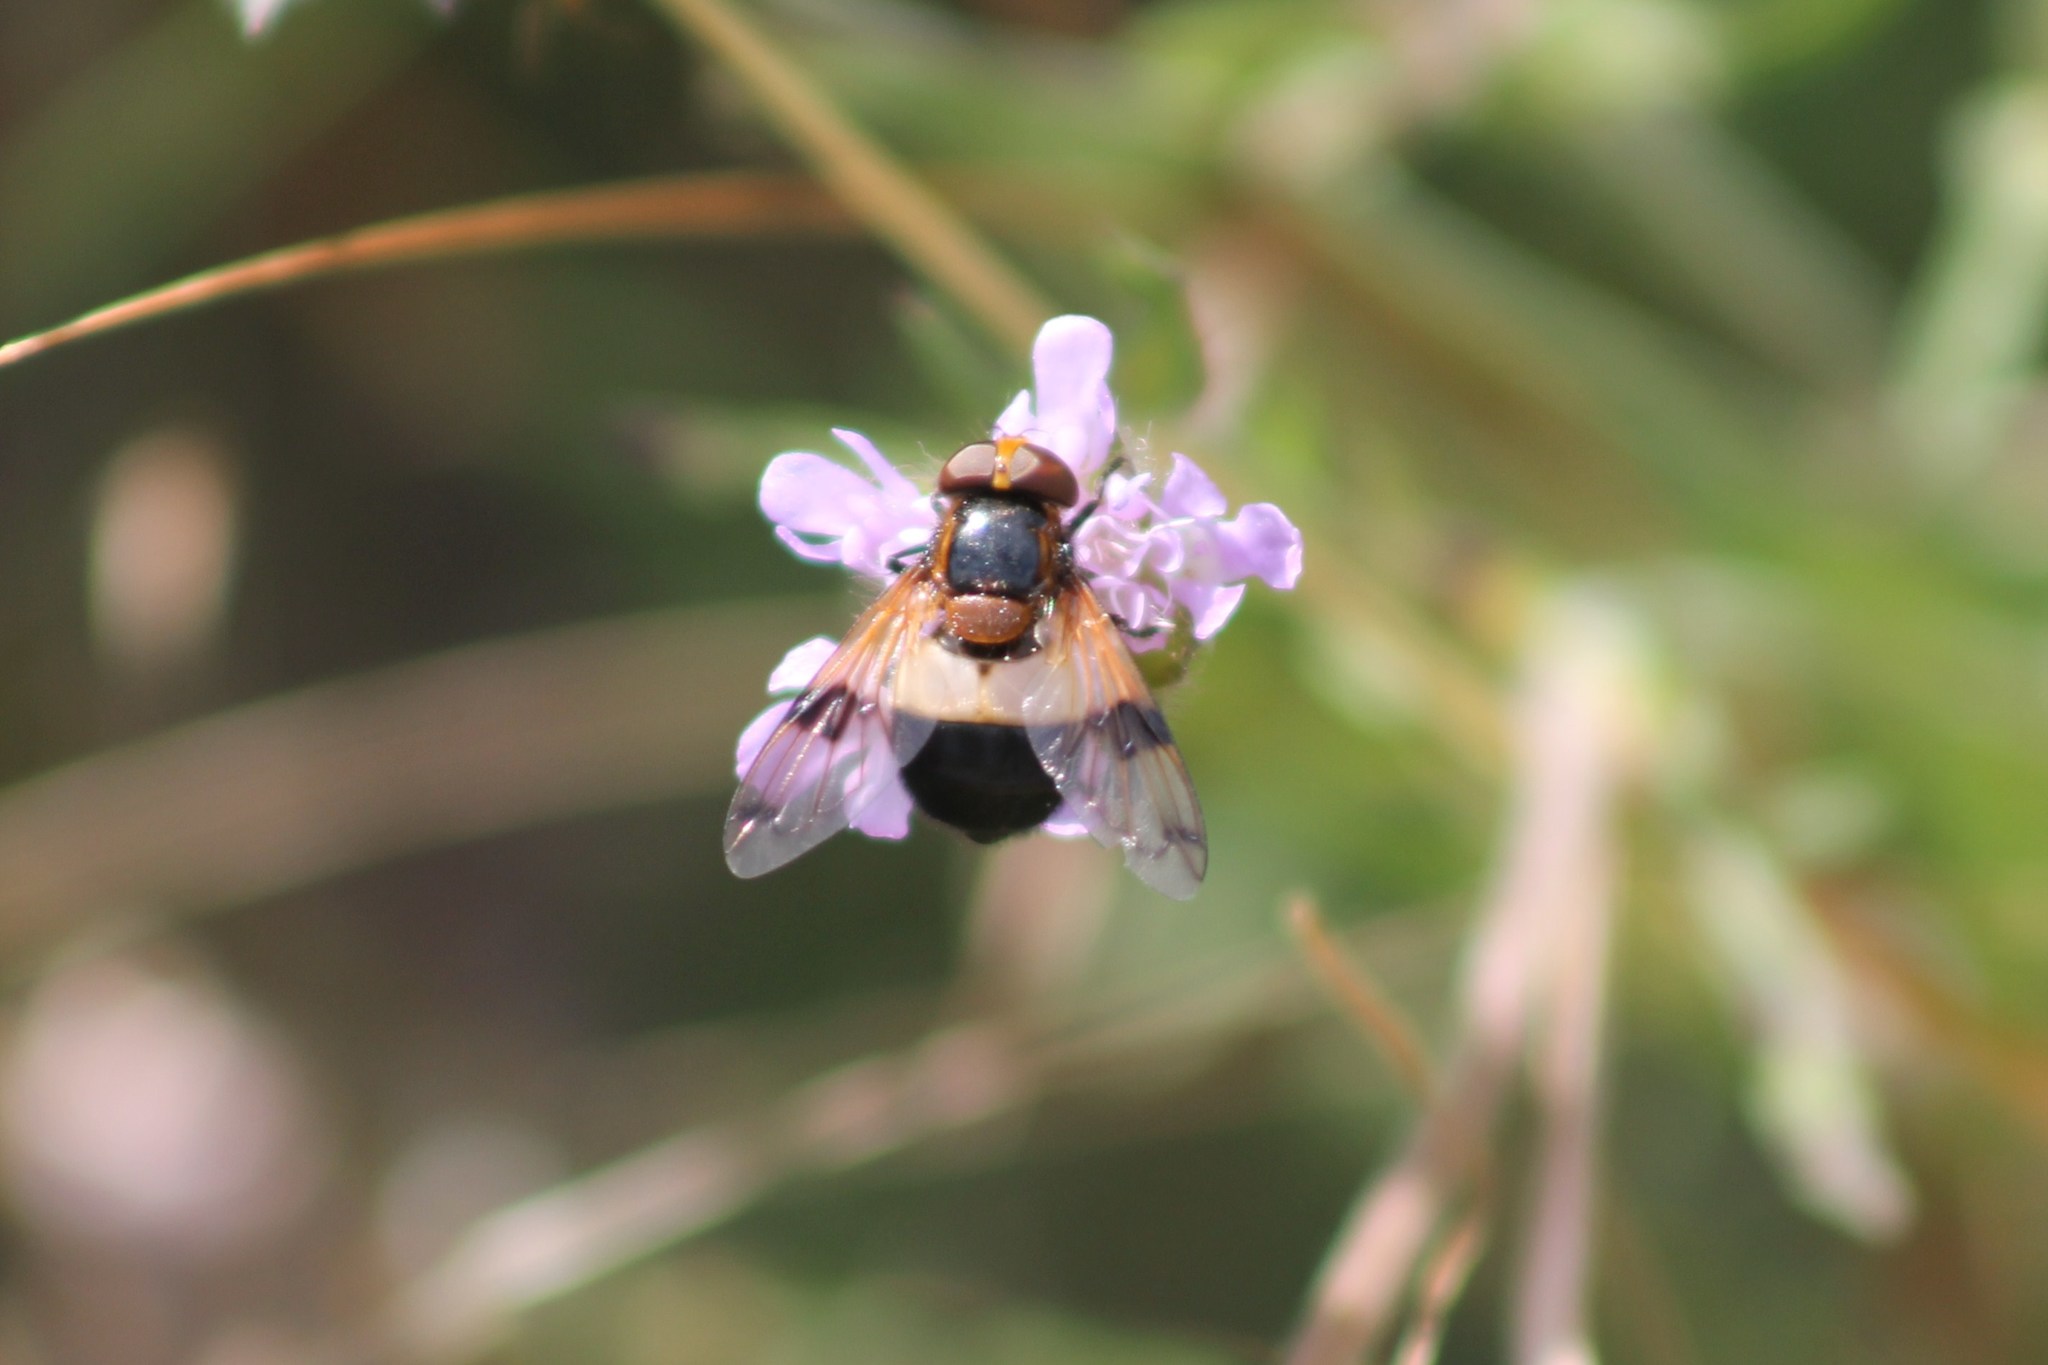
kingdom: Animalia
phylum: Arthropoda
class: Insecta
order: Diptera
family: Syrphidae
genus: Volucella
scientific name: Volucella pellucens
